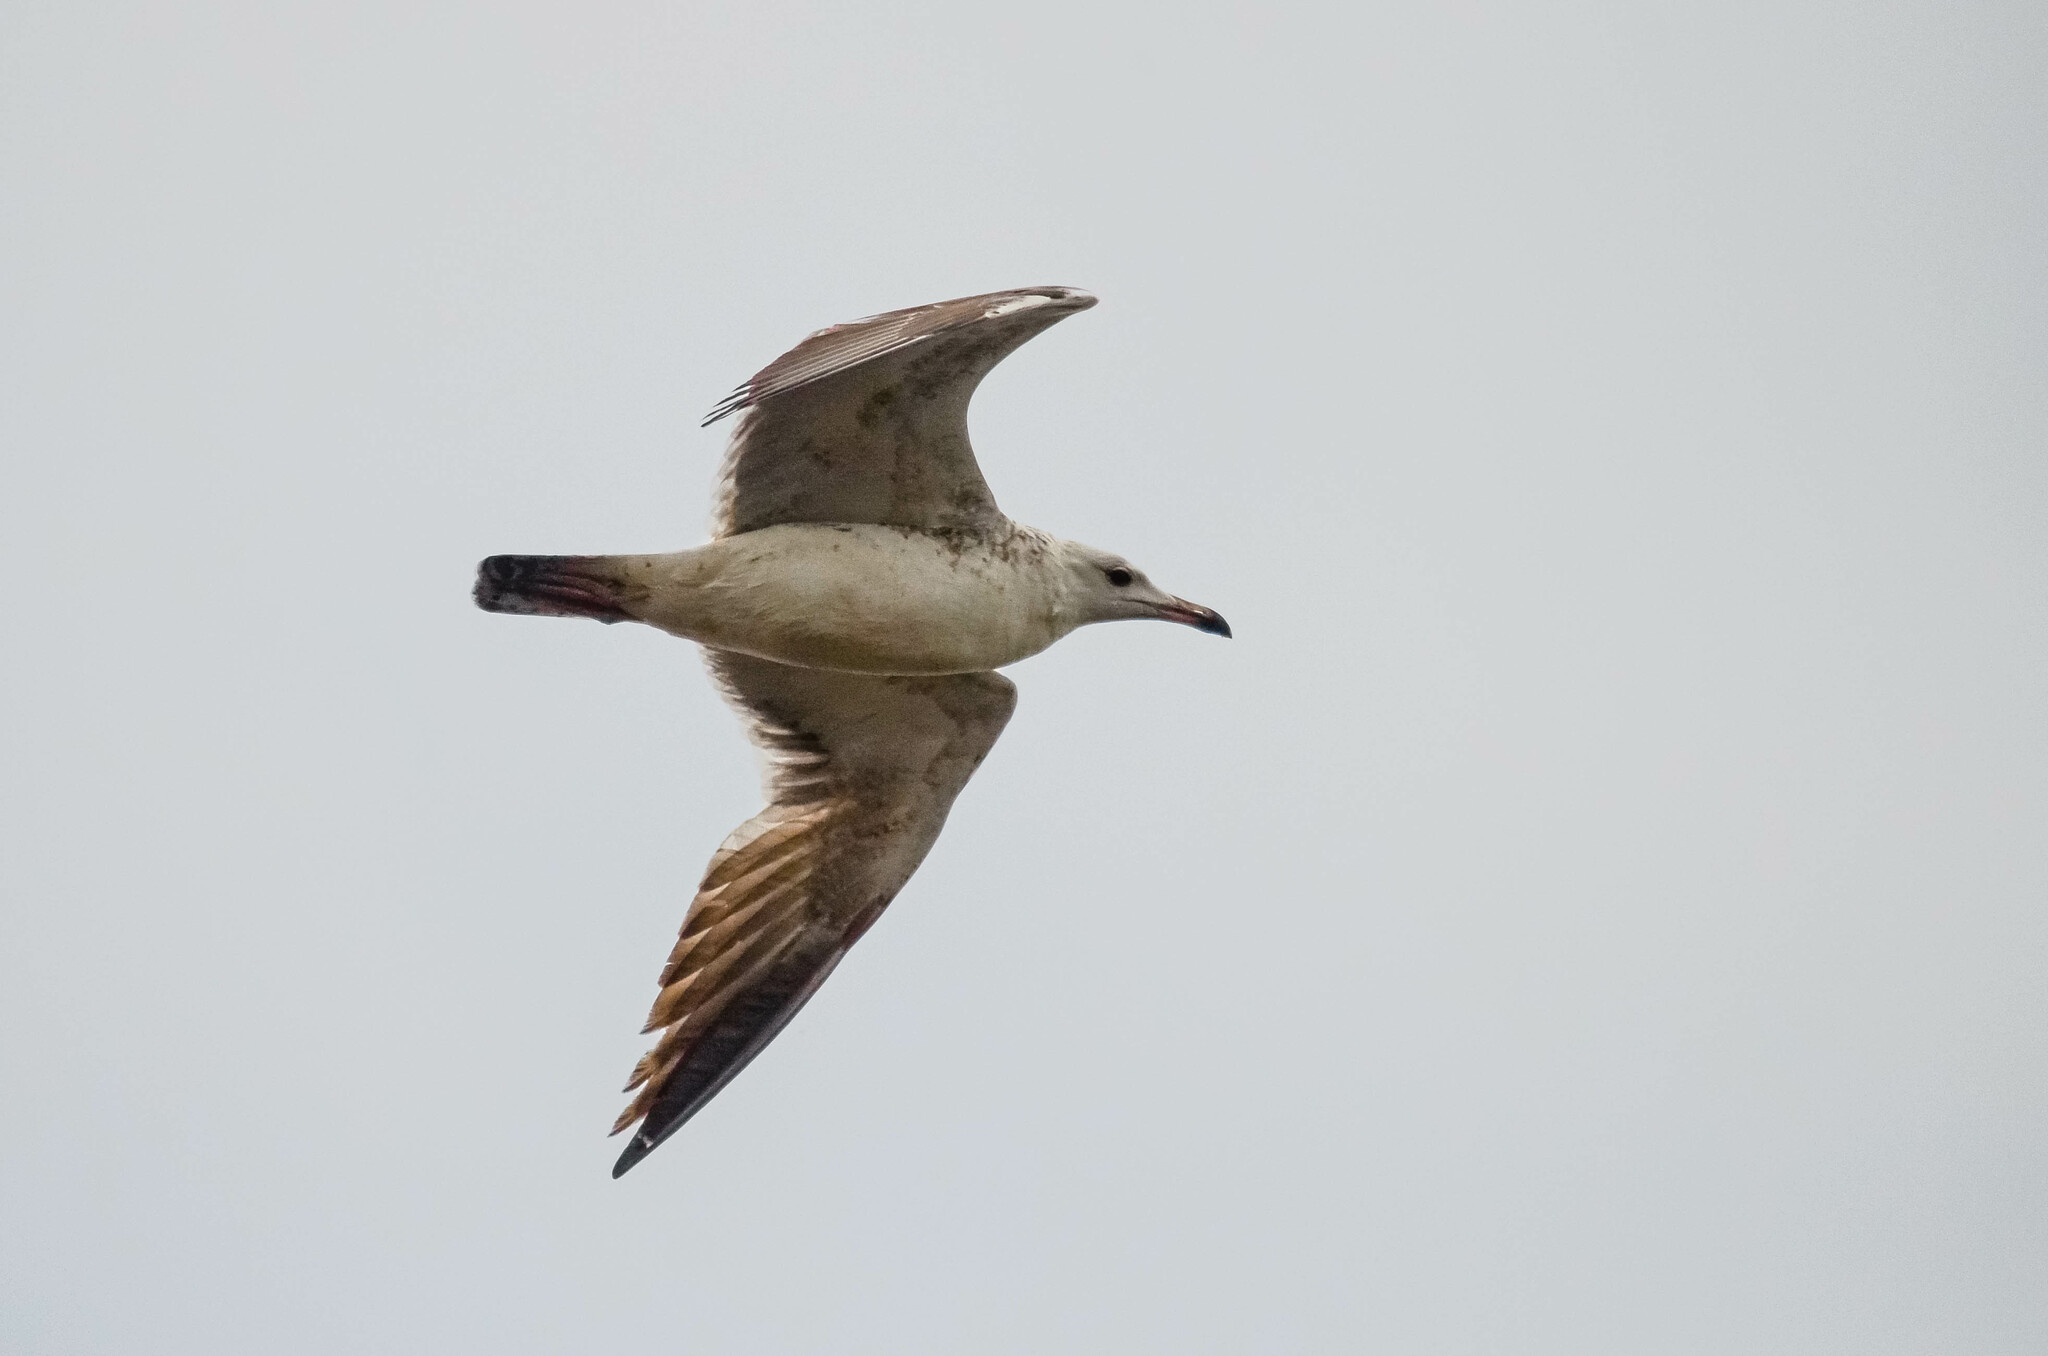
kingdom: Animalia
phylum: Chordata
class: Aves
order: Charadriiformes
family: Laridae
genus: Larus
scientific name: Larus fuscus
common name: Lesser black-backed gull
